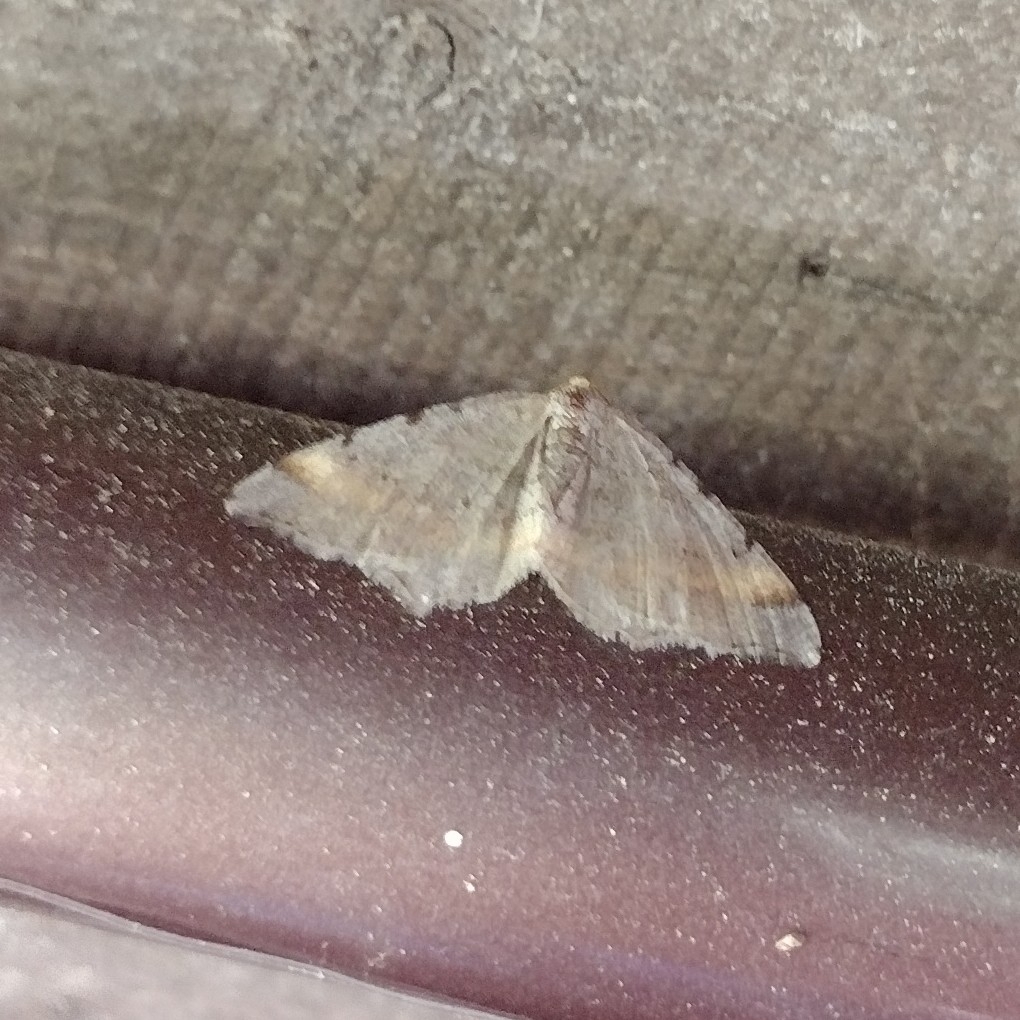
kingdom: Animalia
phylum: Arthropoda
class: Insecta
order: Lepidoptera
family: Geometridae
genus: Macaria
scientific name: Macaria liturata
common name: Tawny-barred angle
